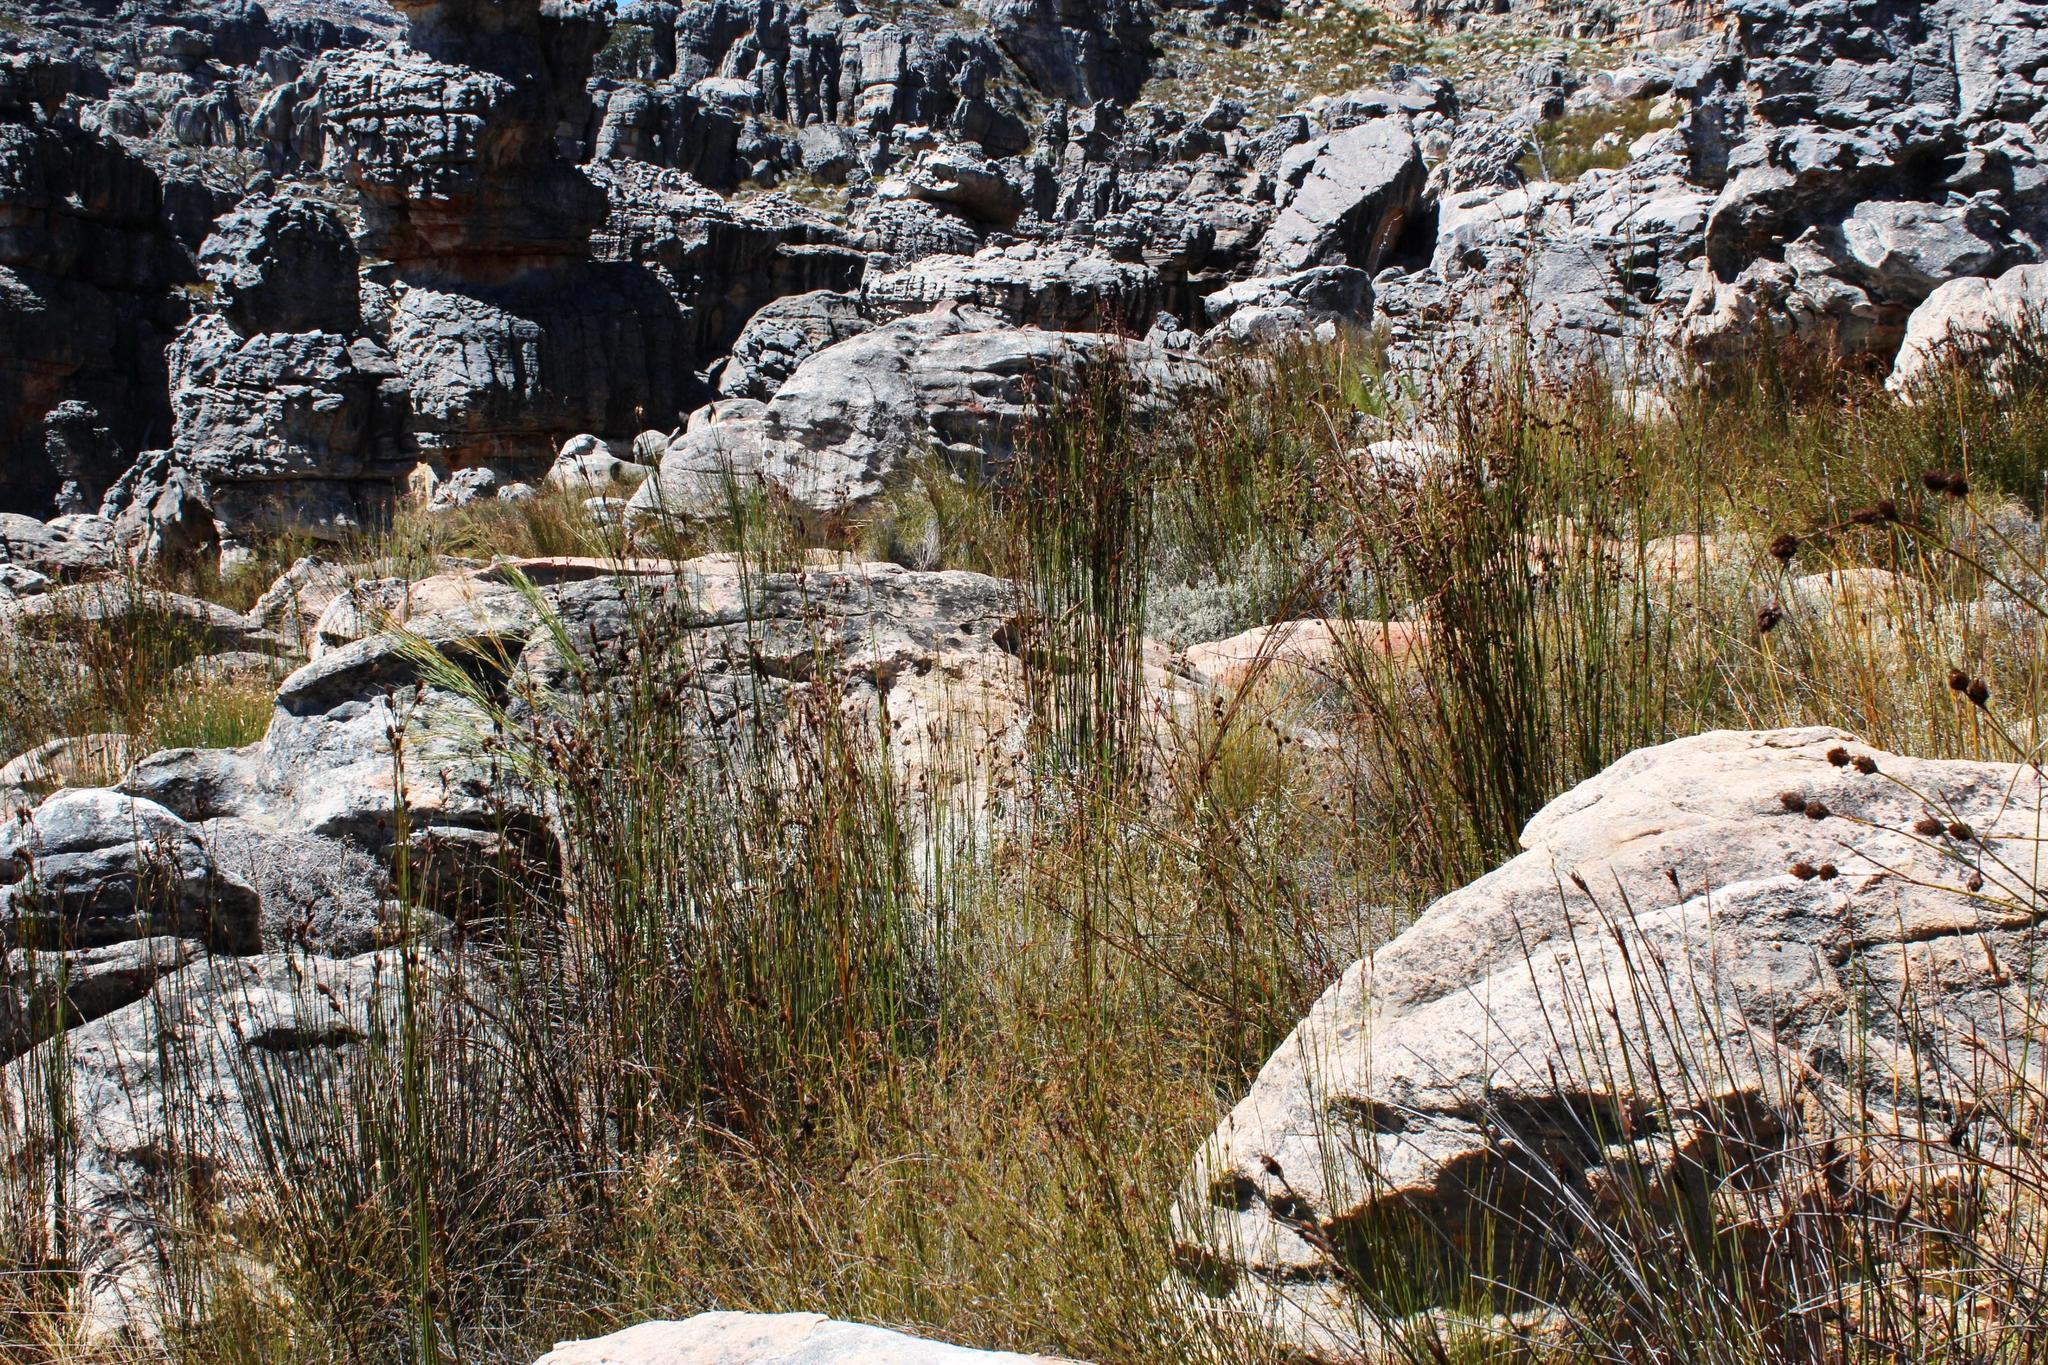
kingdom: Plantae
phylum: Tracheophyta
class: Liliopsida
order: Poales
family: Restionaceae
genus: Restio
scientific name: Restio brunneus
